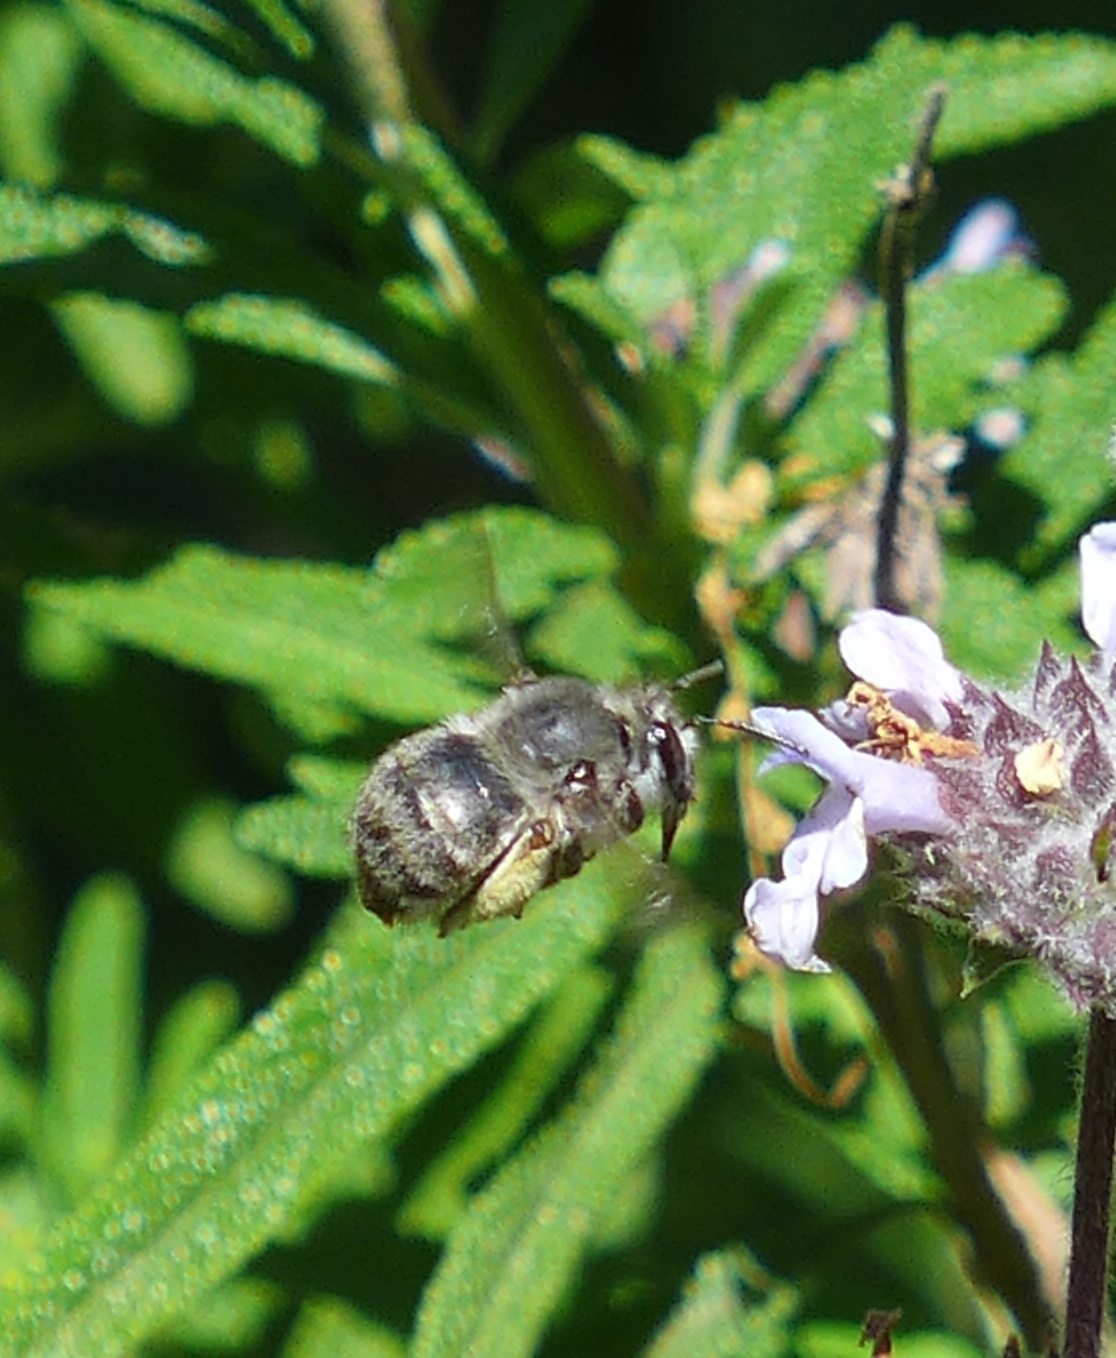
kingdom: Animalia
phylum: Arthropoda
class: Insecta
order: Hymenoptera
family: Apidae
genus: Habropoda
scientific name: Habropoda depressa
